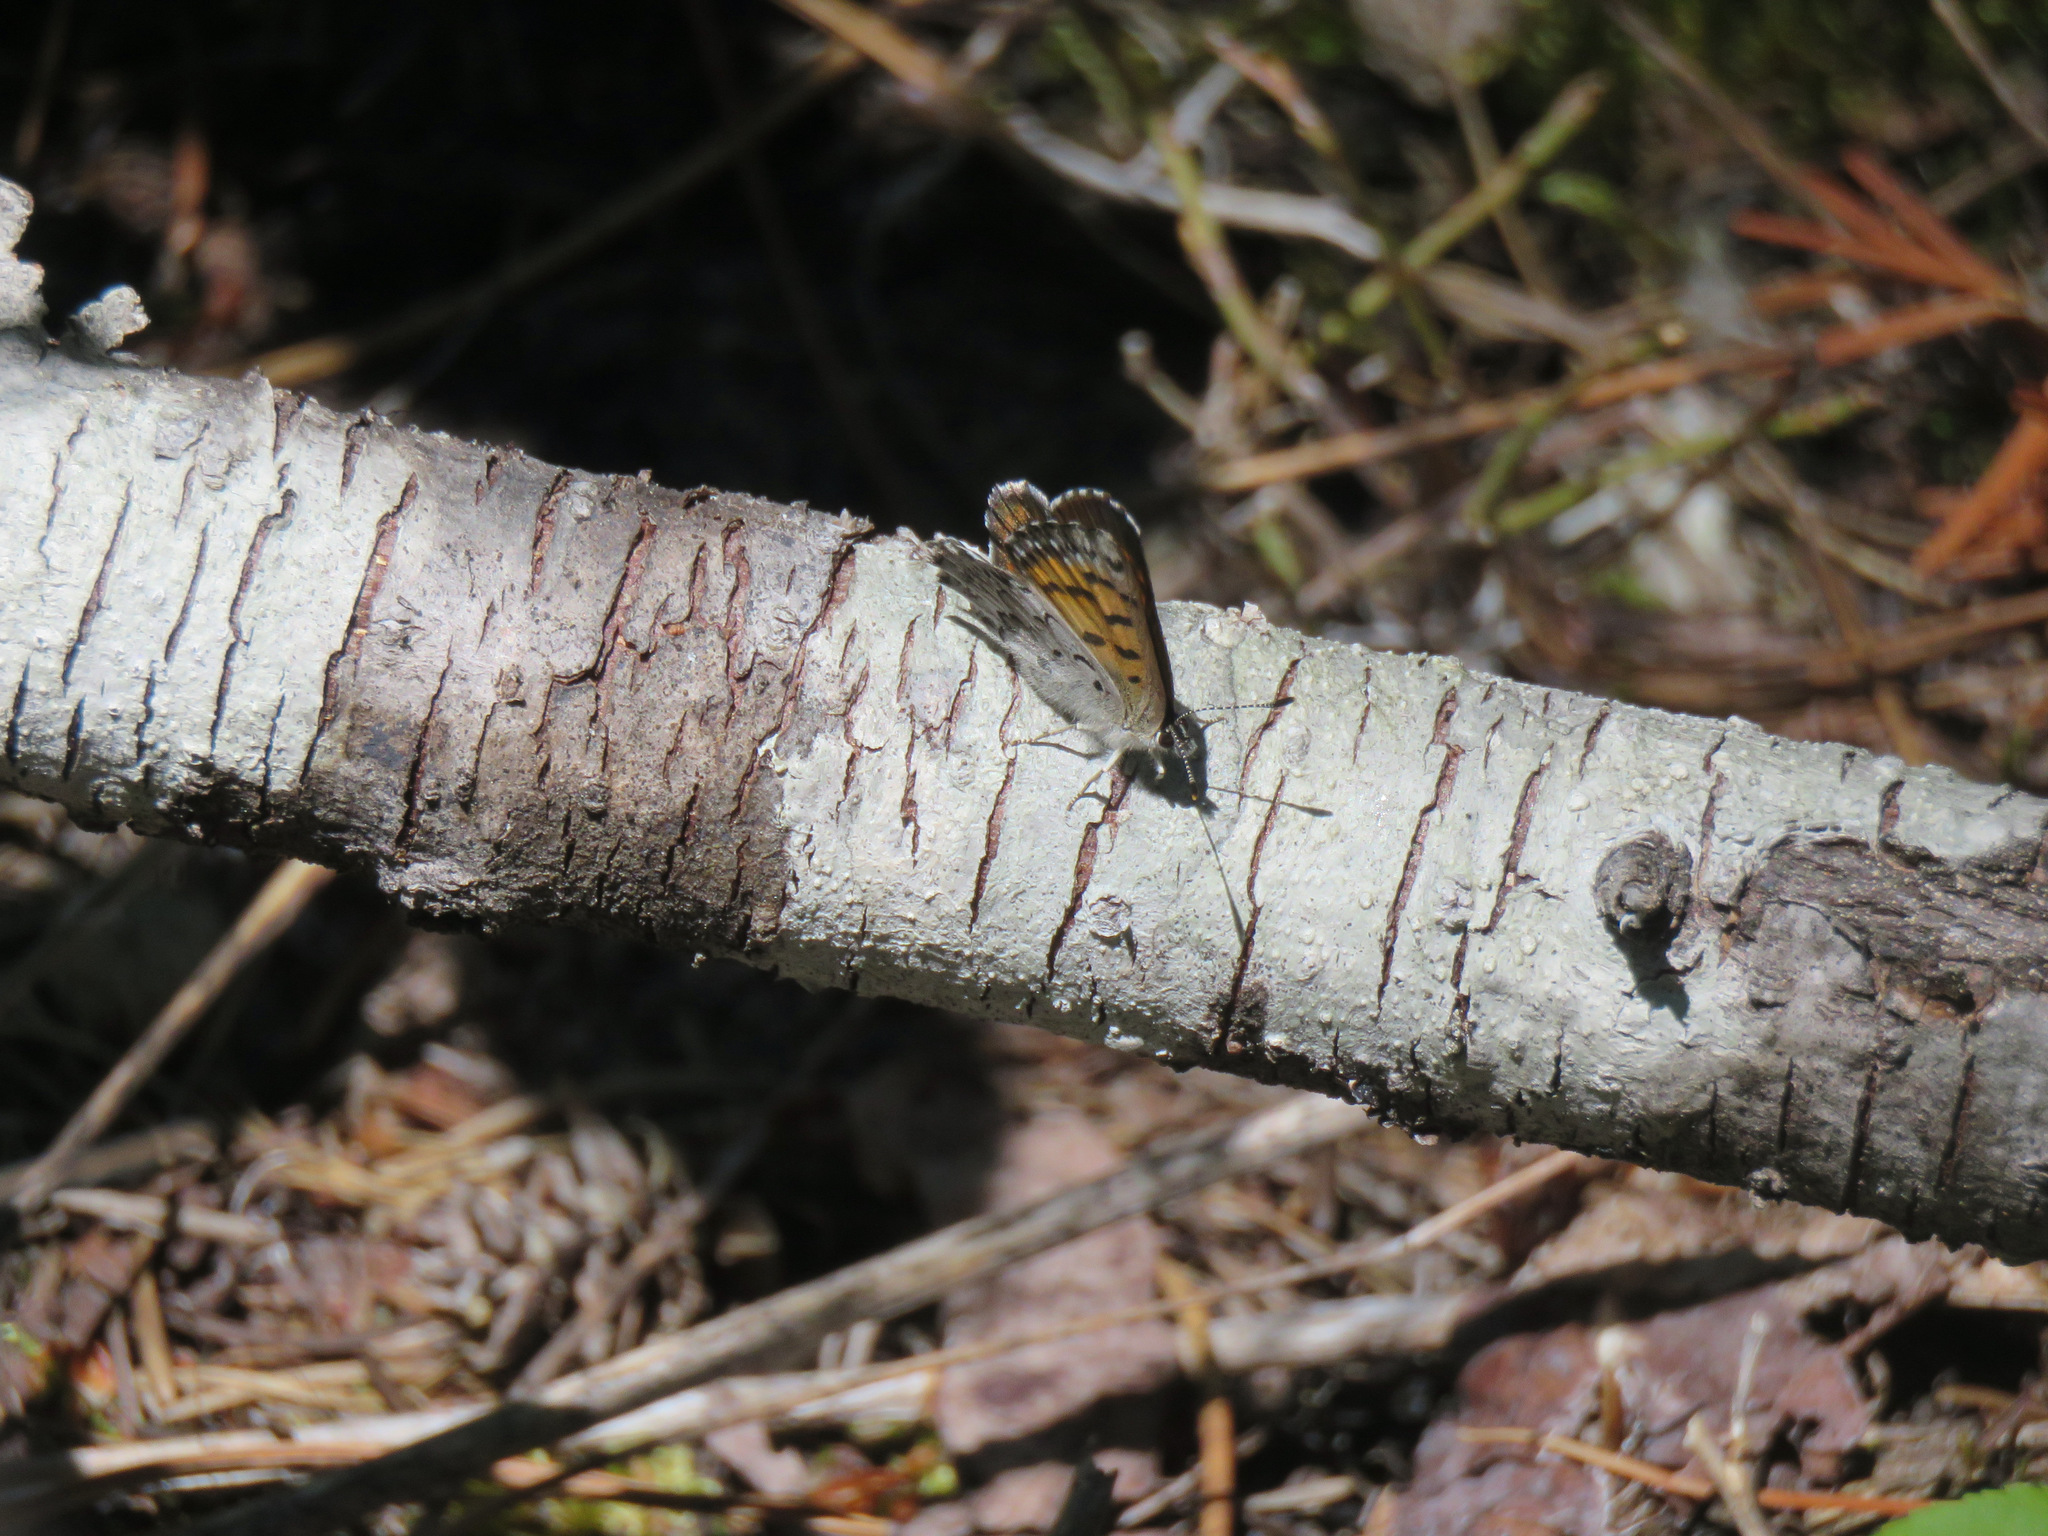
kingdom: Animalia
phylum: Arthropoda
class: Insecta
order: Lepidoptera
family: Lycaenidae
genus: Tharsalea
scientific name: Tharsalea mariposa
